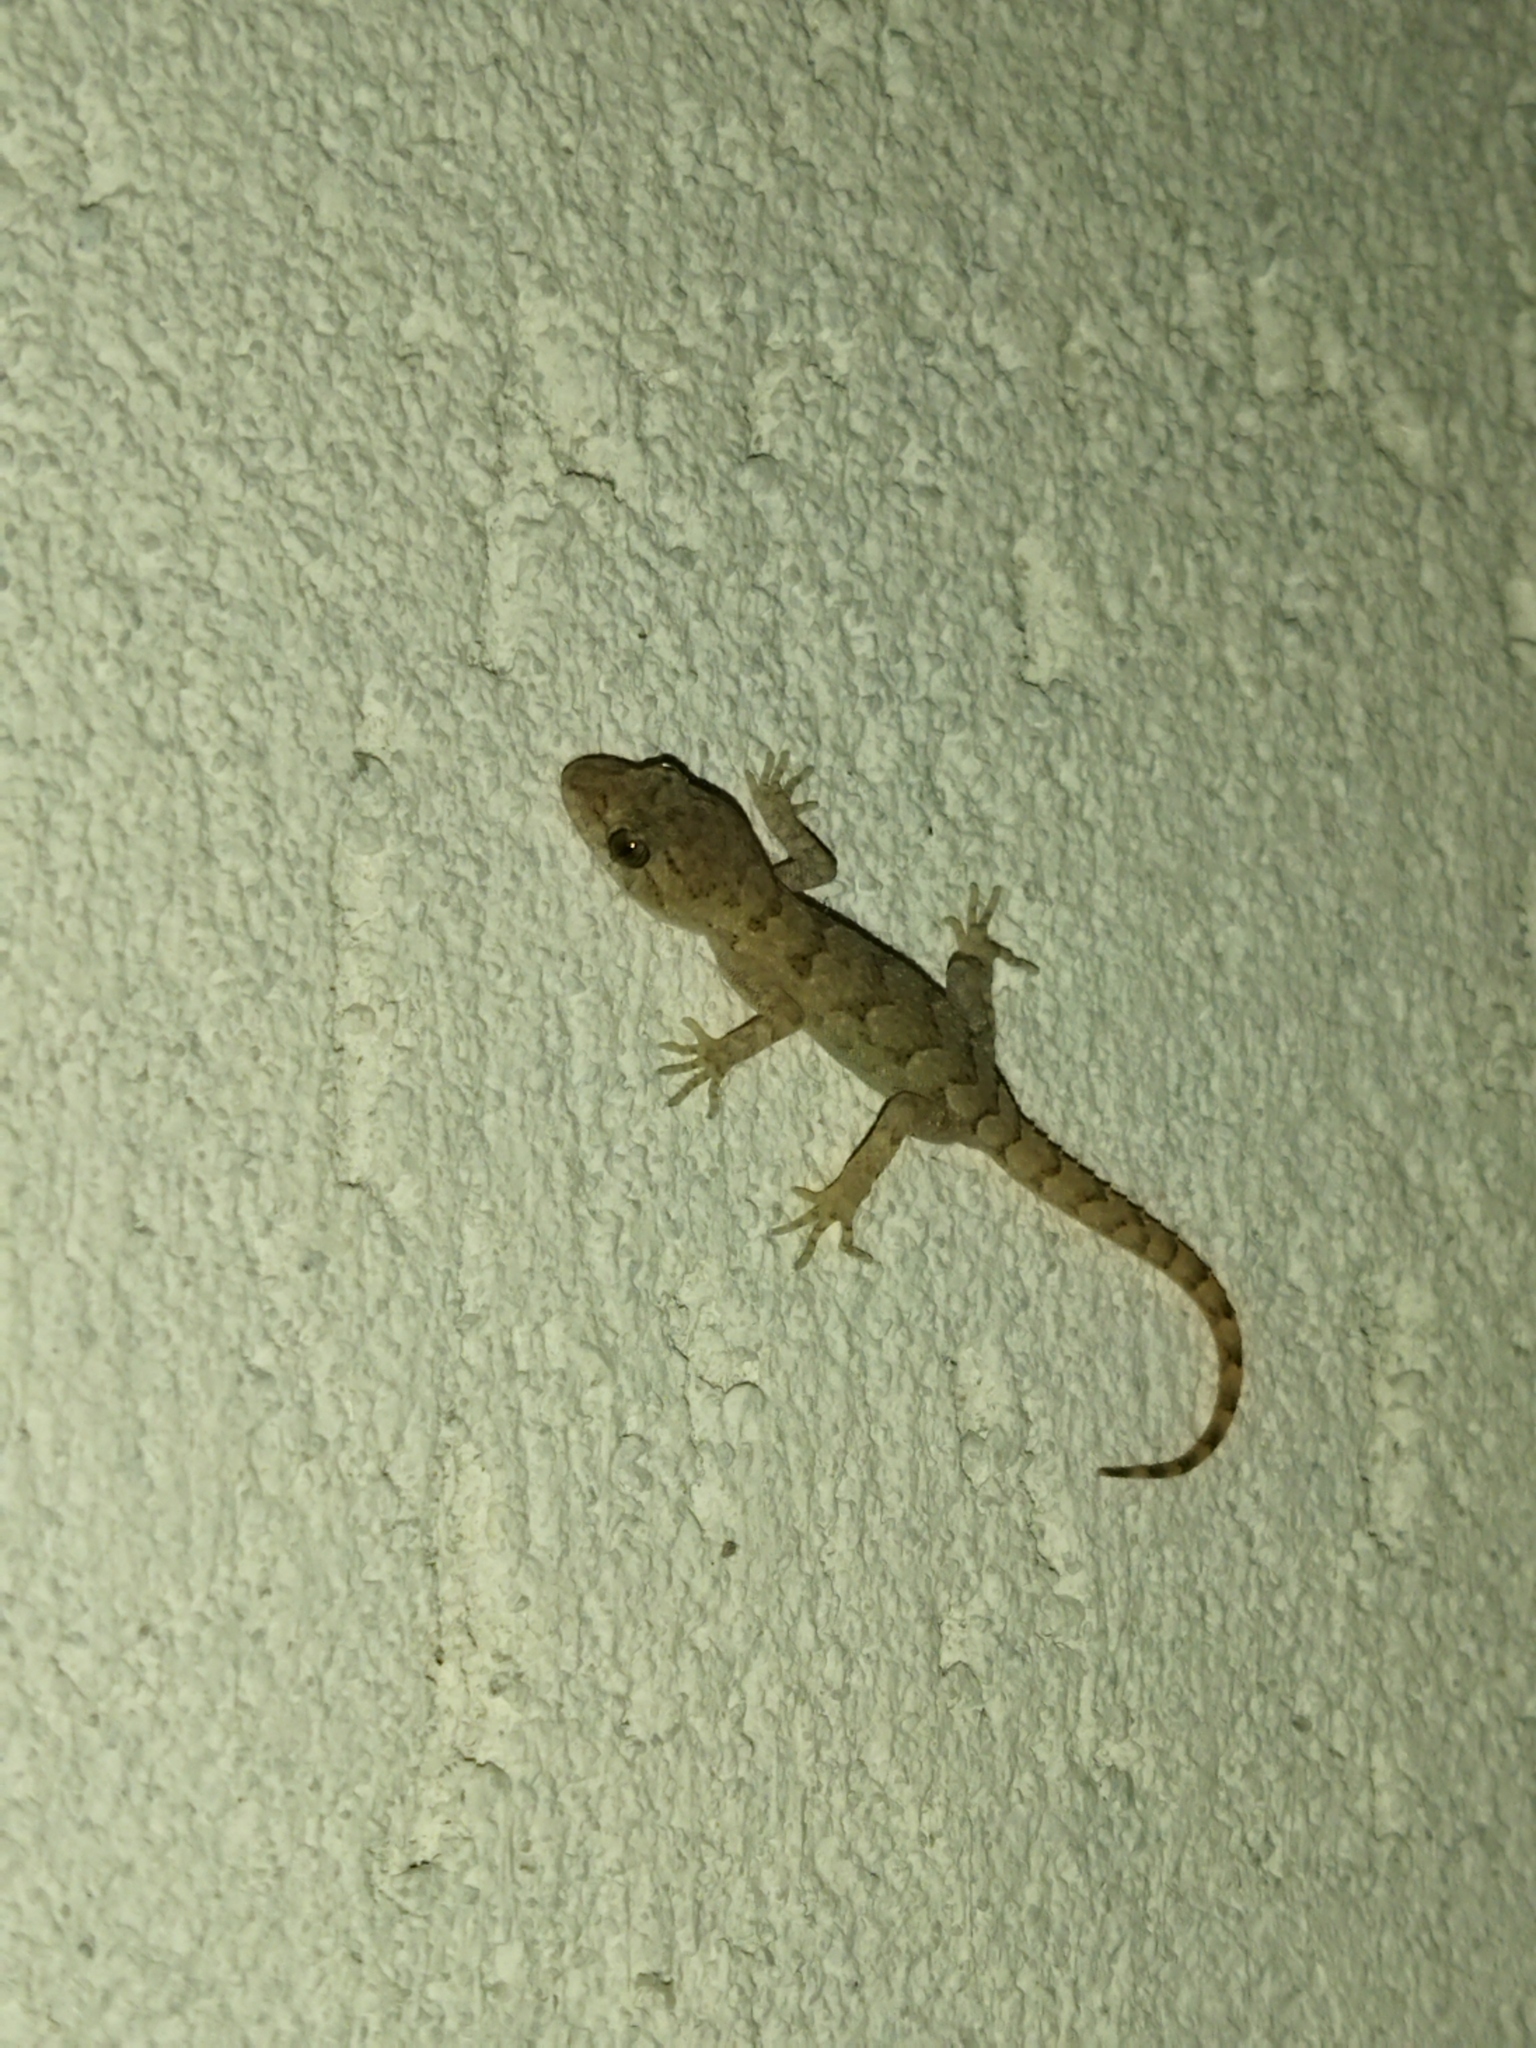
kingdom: Animalia
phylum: Chordata
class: Squamata
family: Gekkonidae
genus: Mediodactylus
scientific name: Mediodactylus kotschyi
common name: Kotschy's gecko
